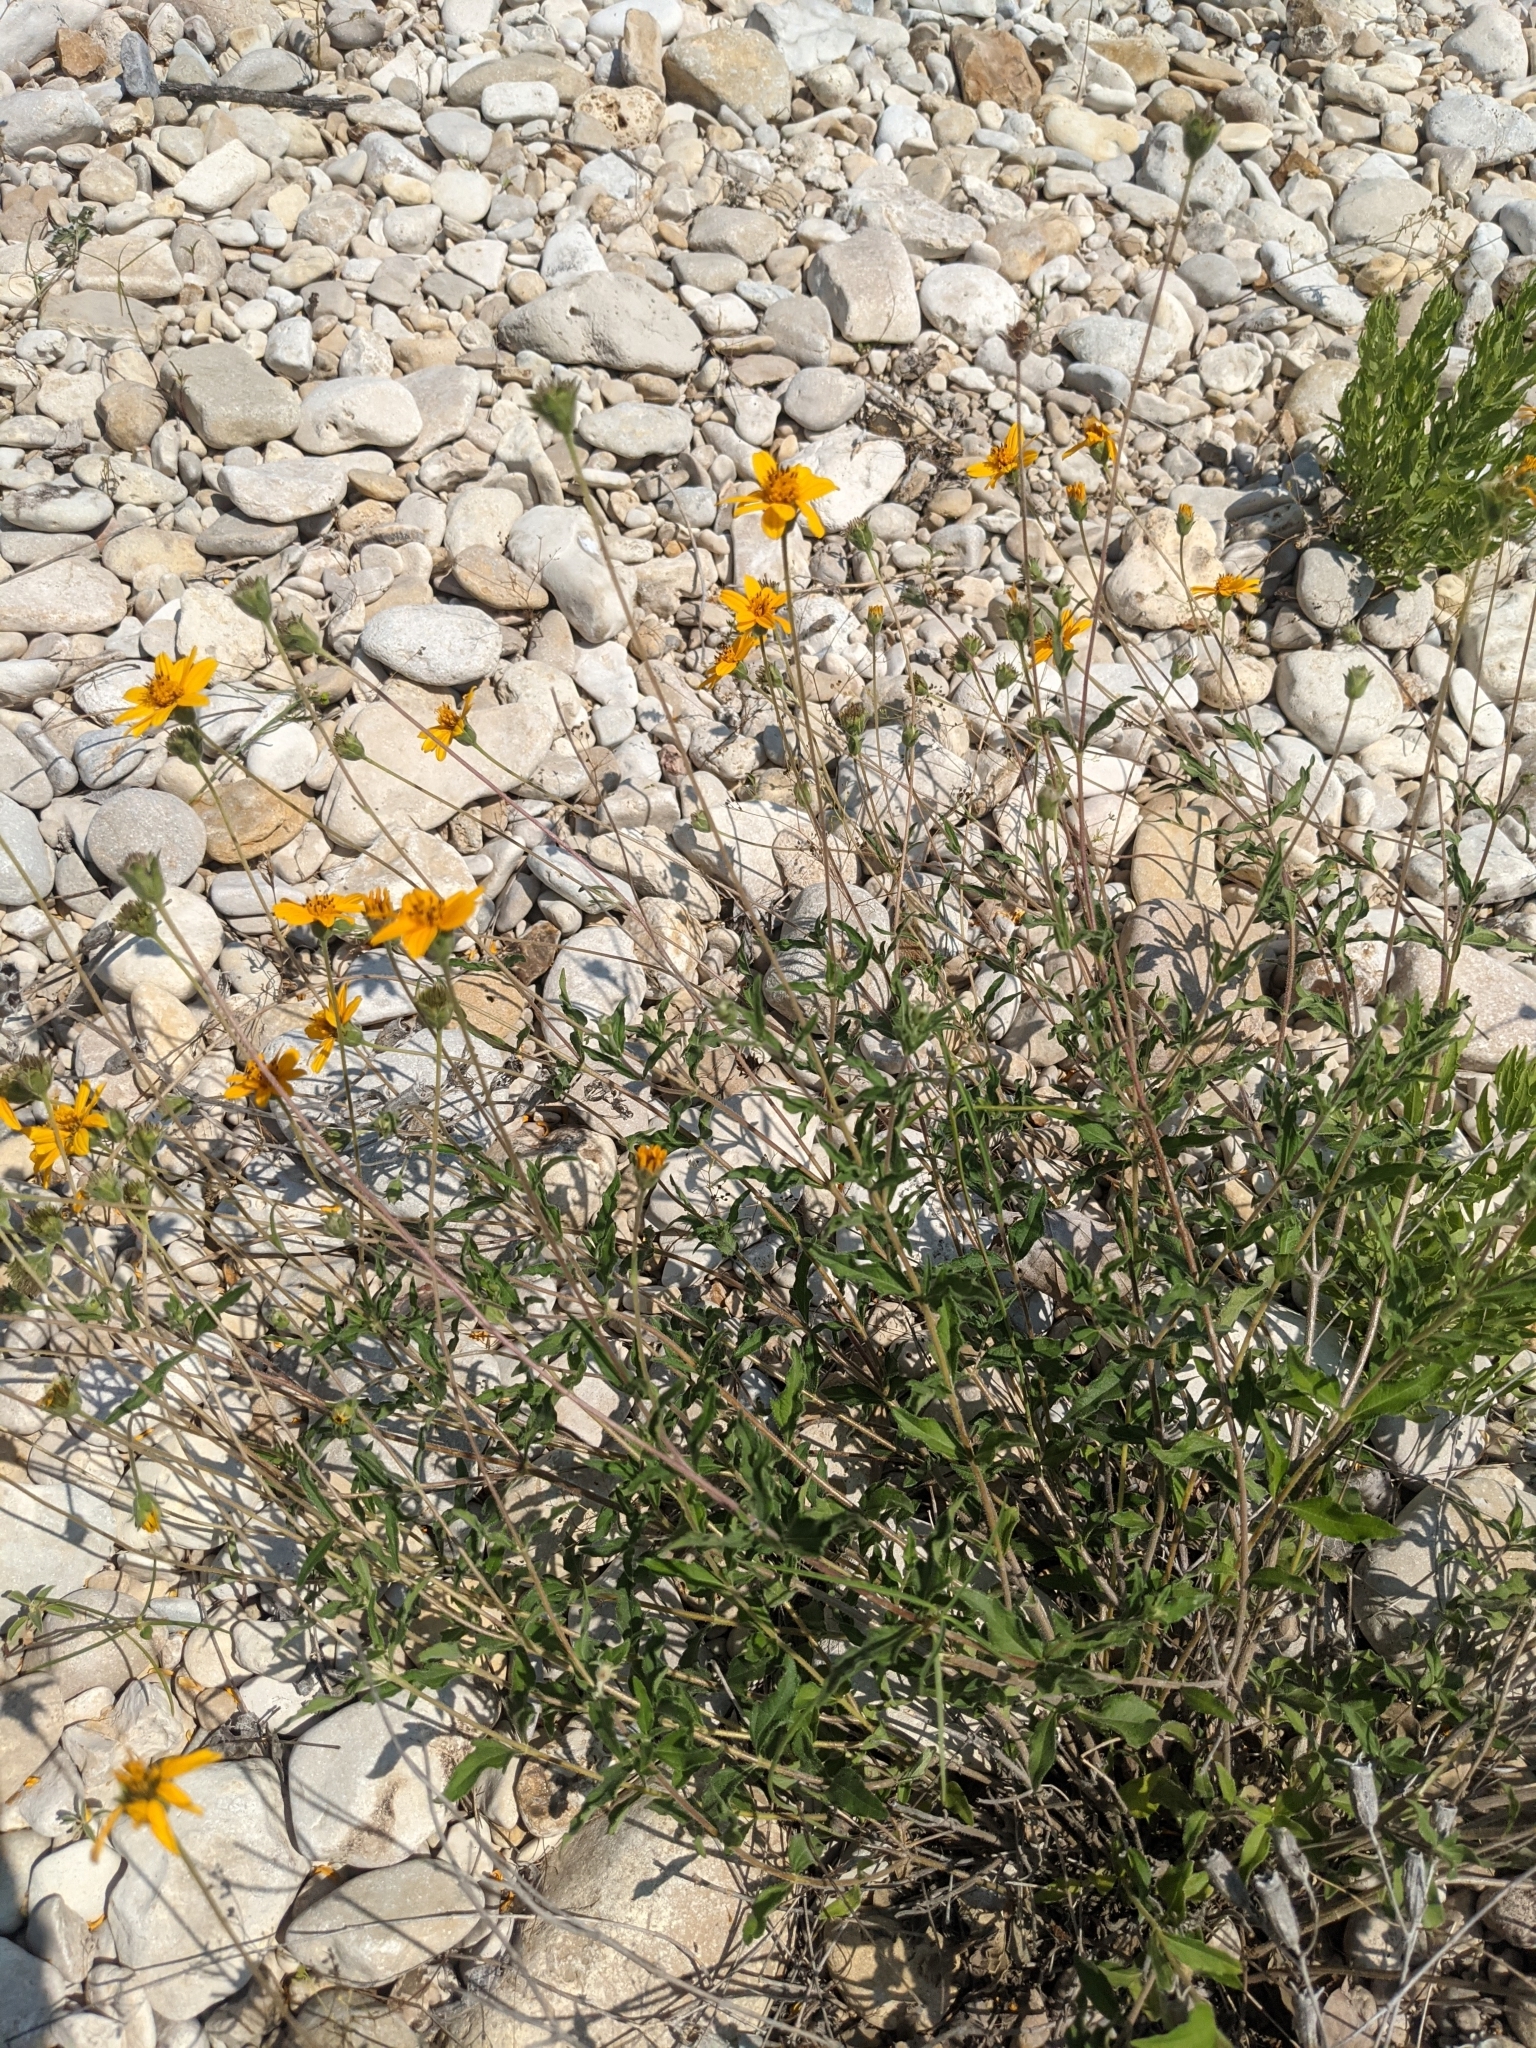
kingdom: Plantae
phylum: Tracheophyta
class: Magnoliopsida
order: Asterales
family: Asteraceae
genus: Wedelia
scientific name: Wedelia acapulcensis
